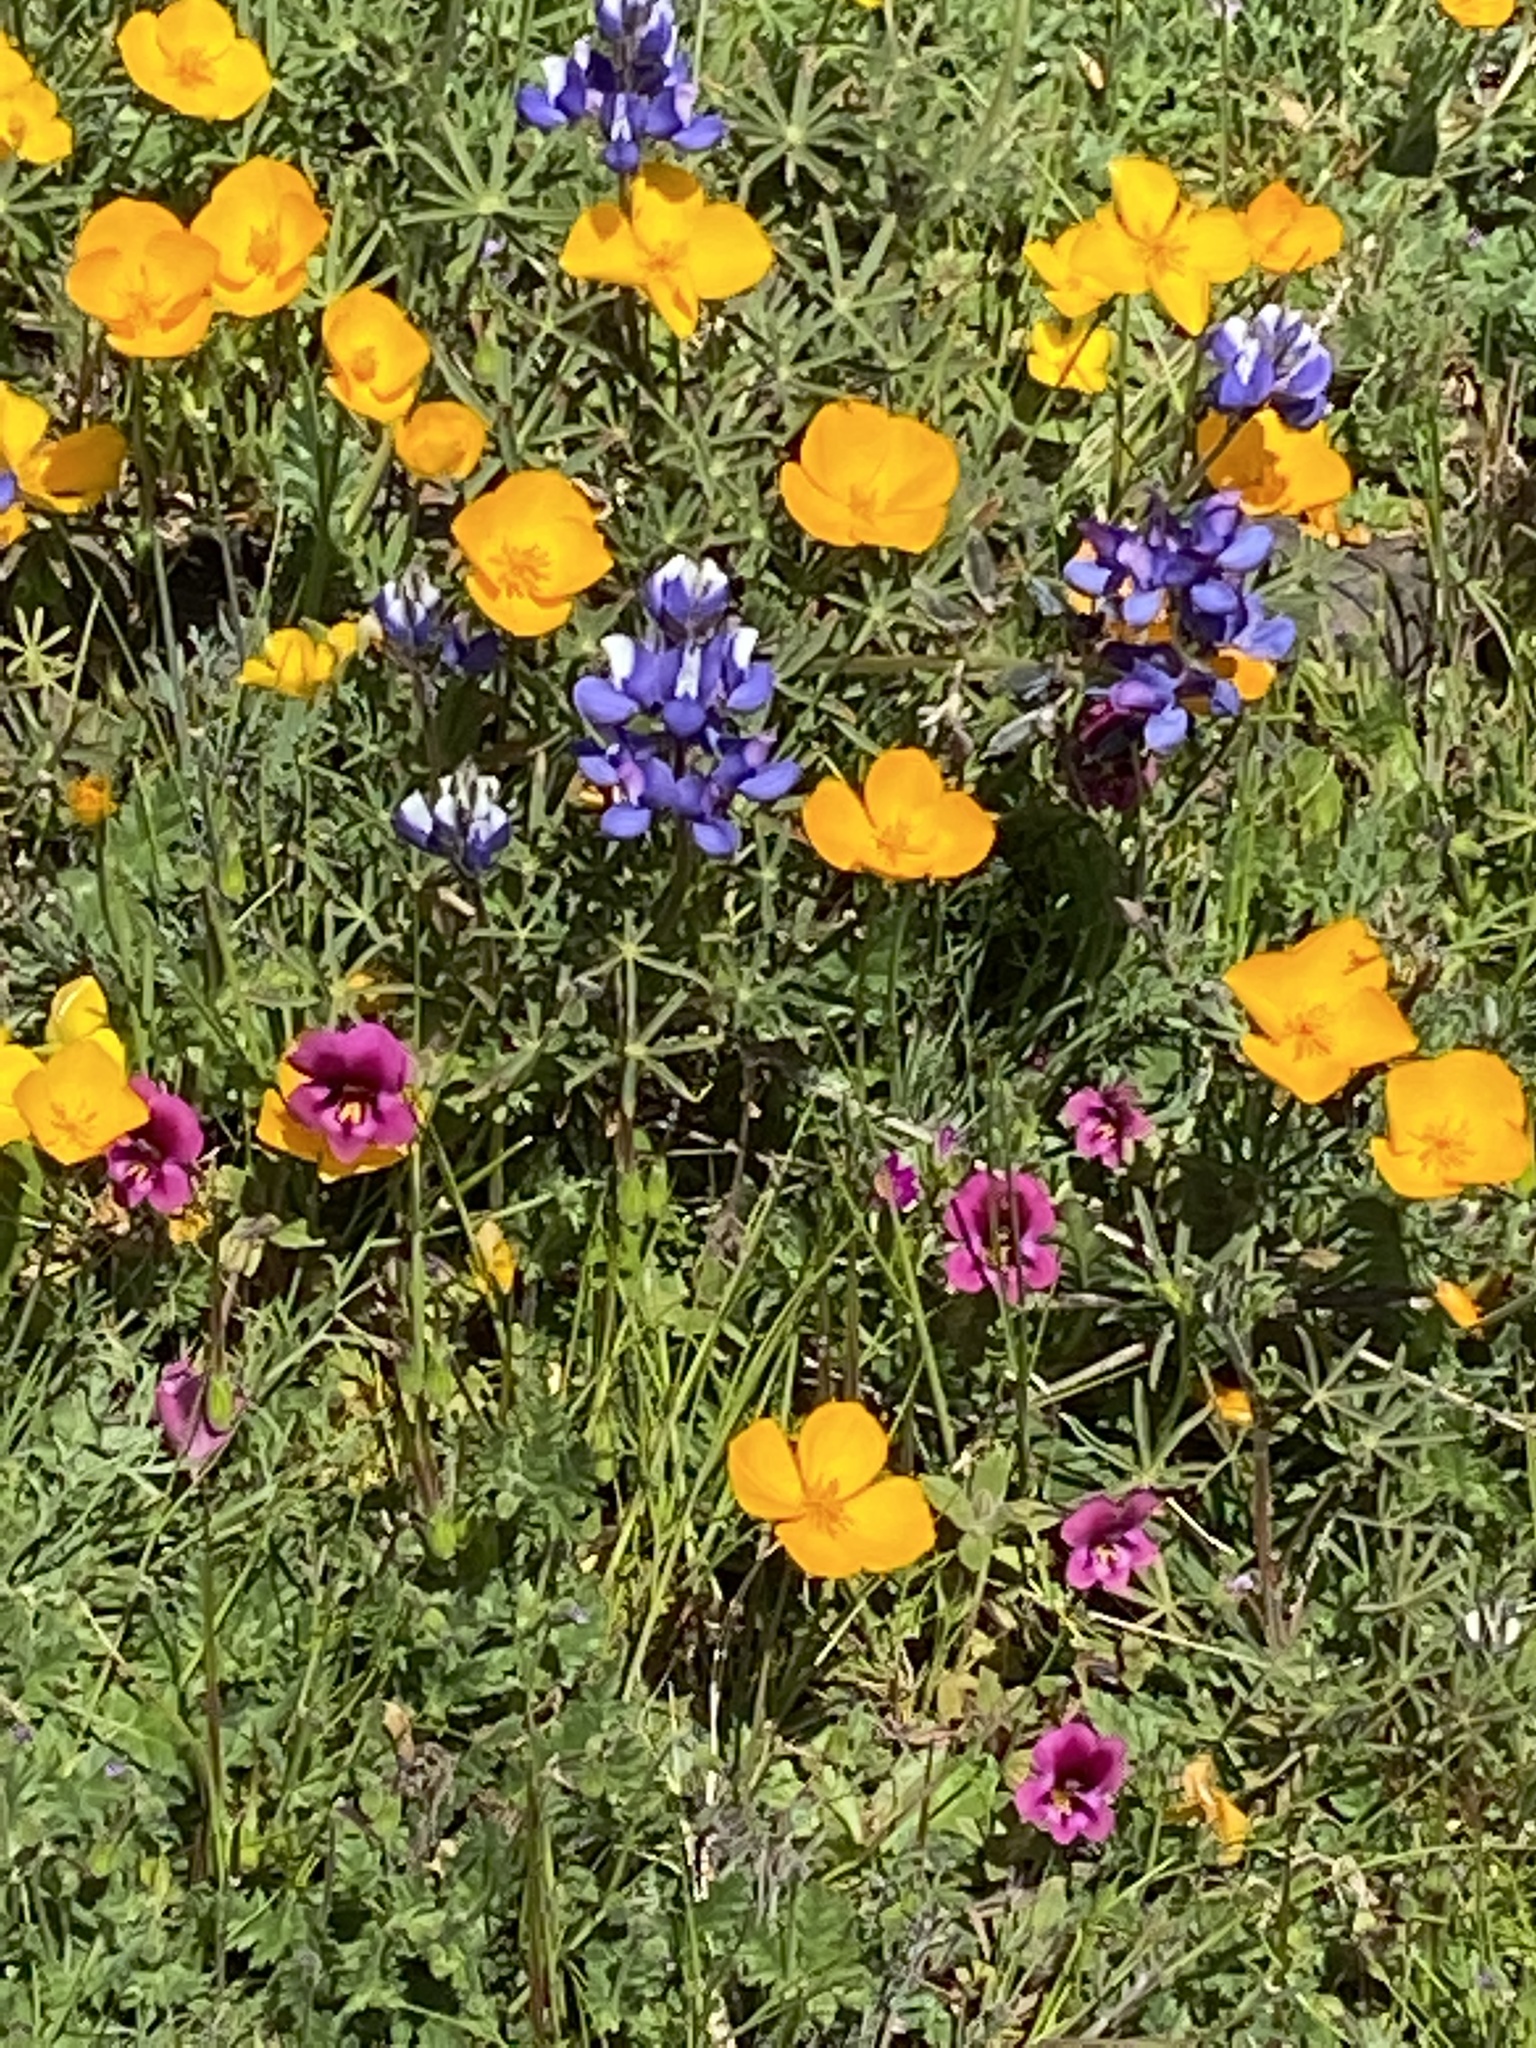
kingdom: Plantae
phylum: Tracheophyta
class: Magnoliopsida
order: Lamiales
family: Phrymaceae
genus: Diplacus
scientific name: Diplacus kelloggii
